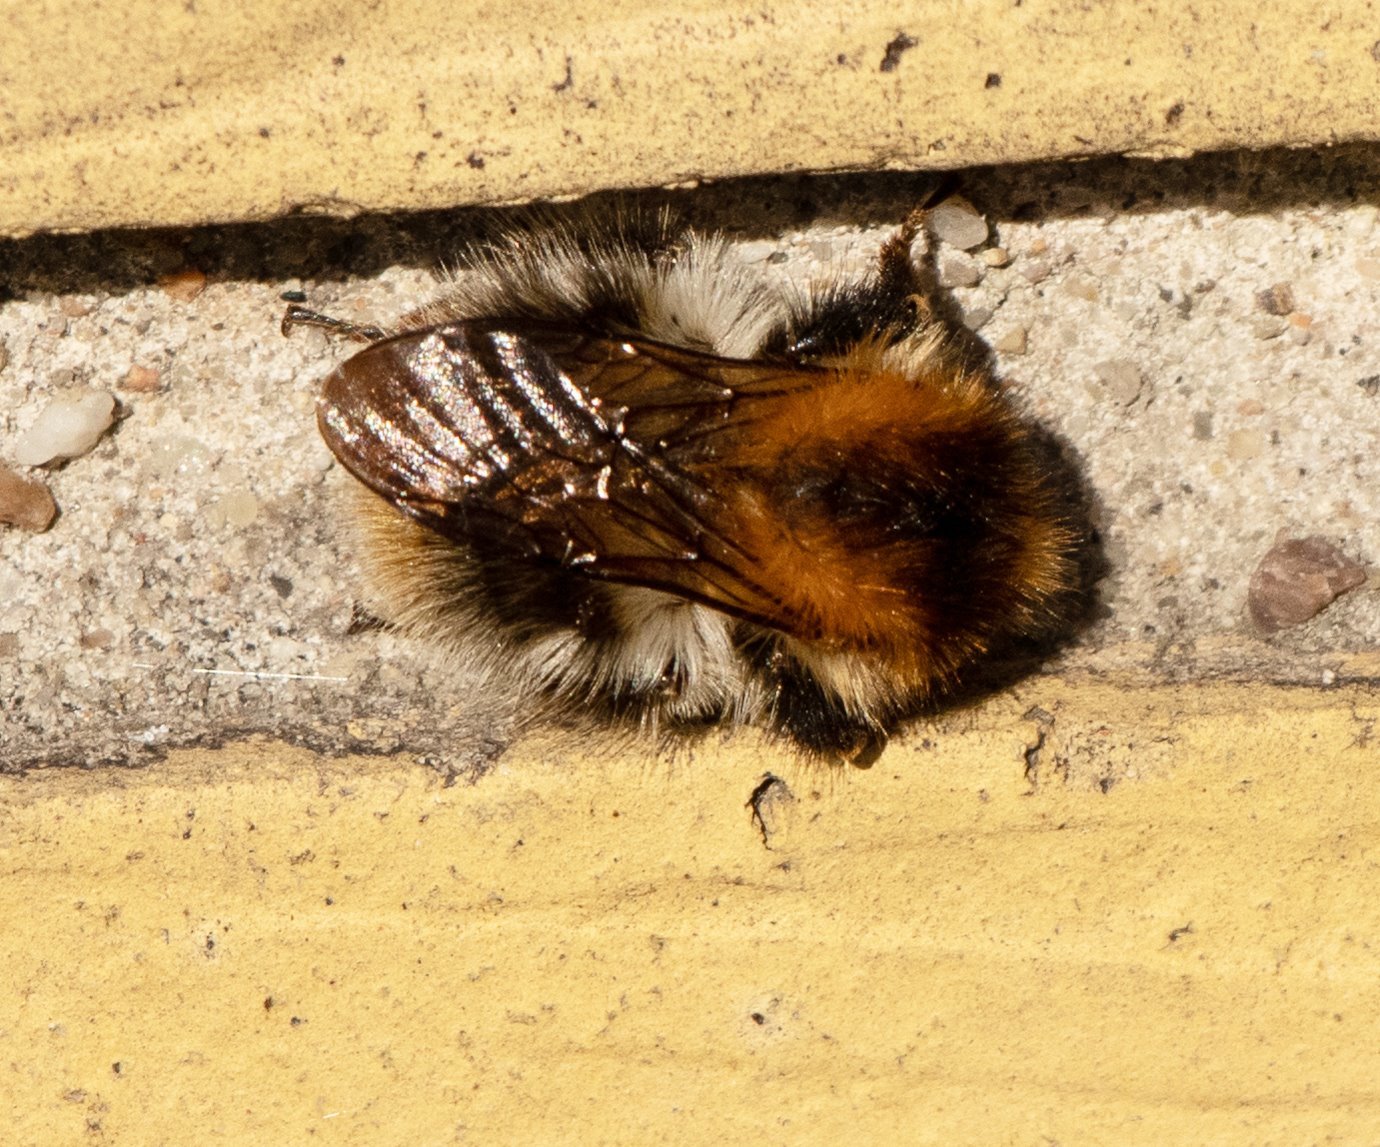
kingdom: Animalia
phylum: Arthropoda
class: Insecta
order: Hymenoptera
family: Apidae
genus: Bombus
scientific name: Bombus pascuorum
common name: Common carder bee
